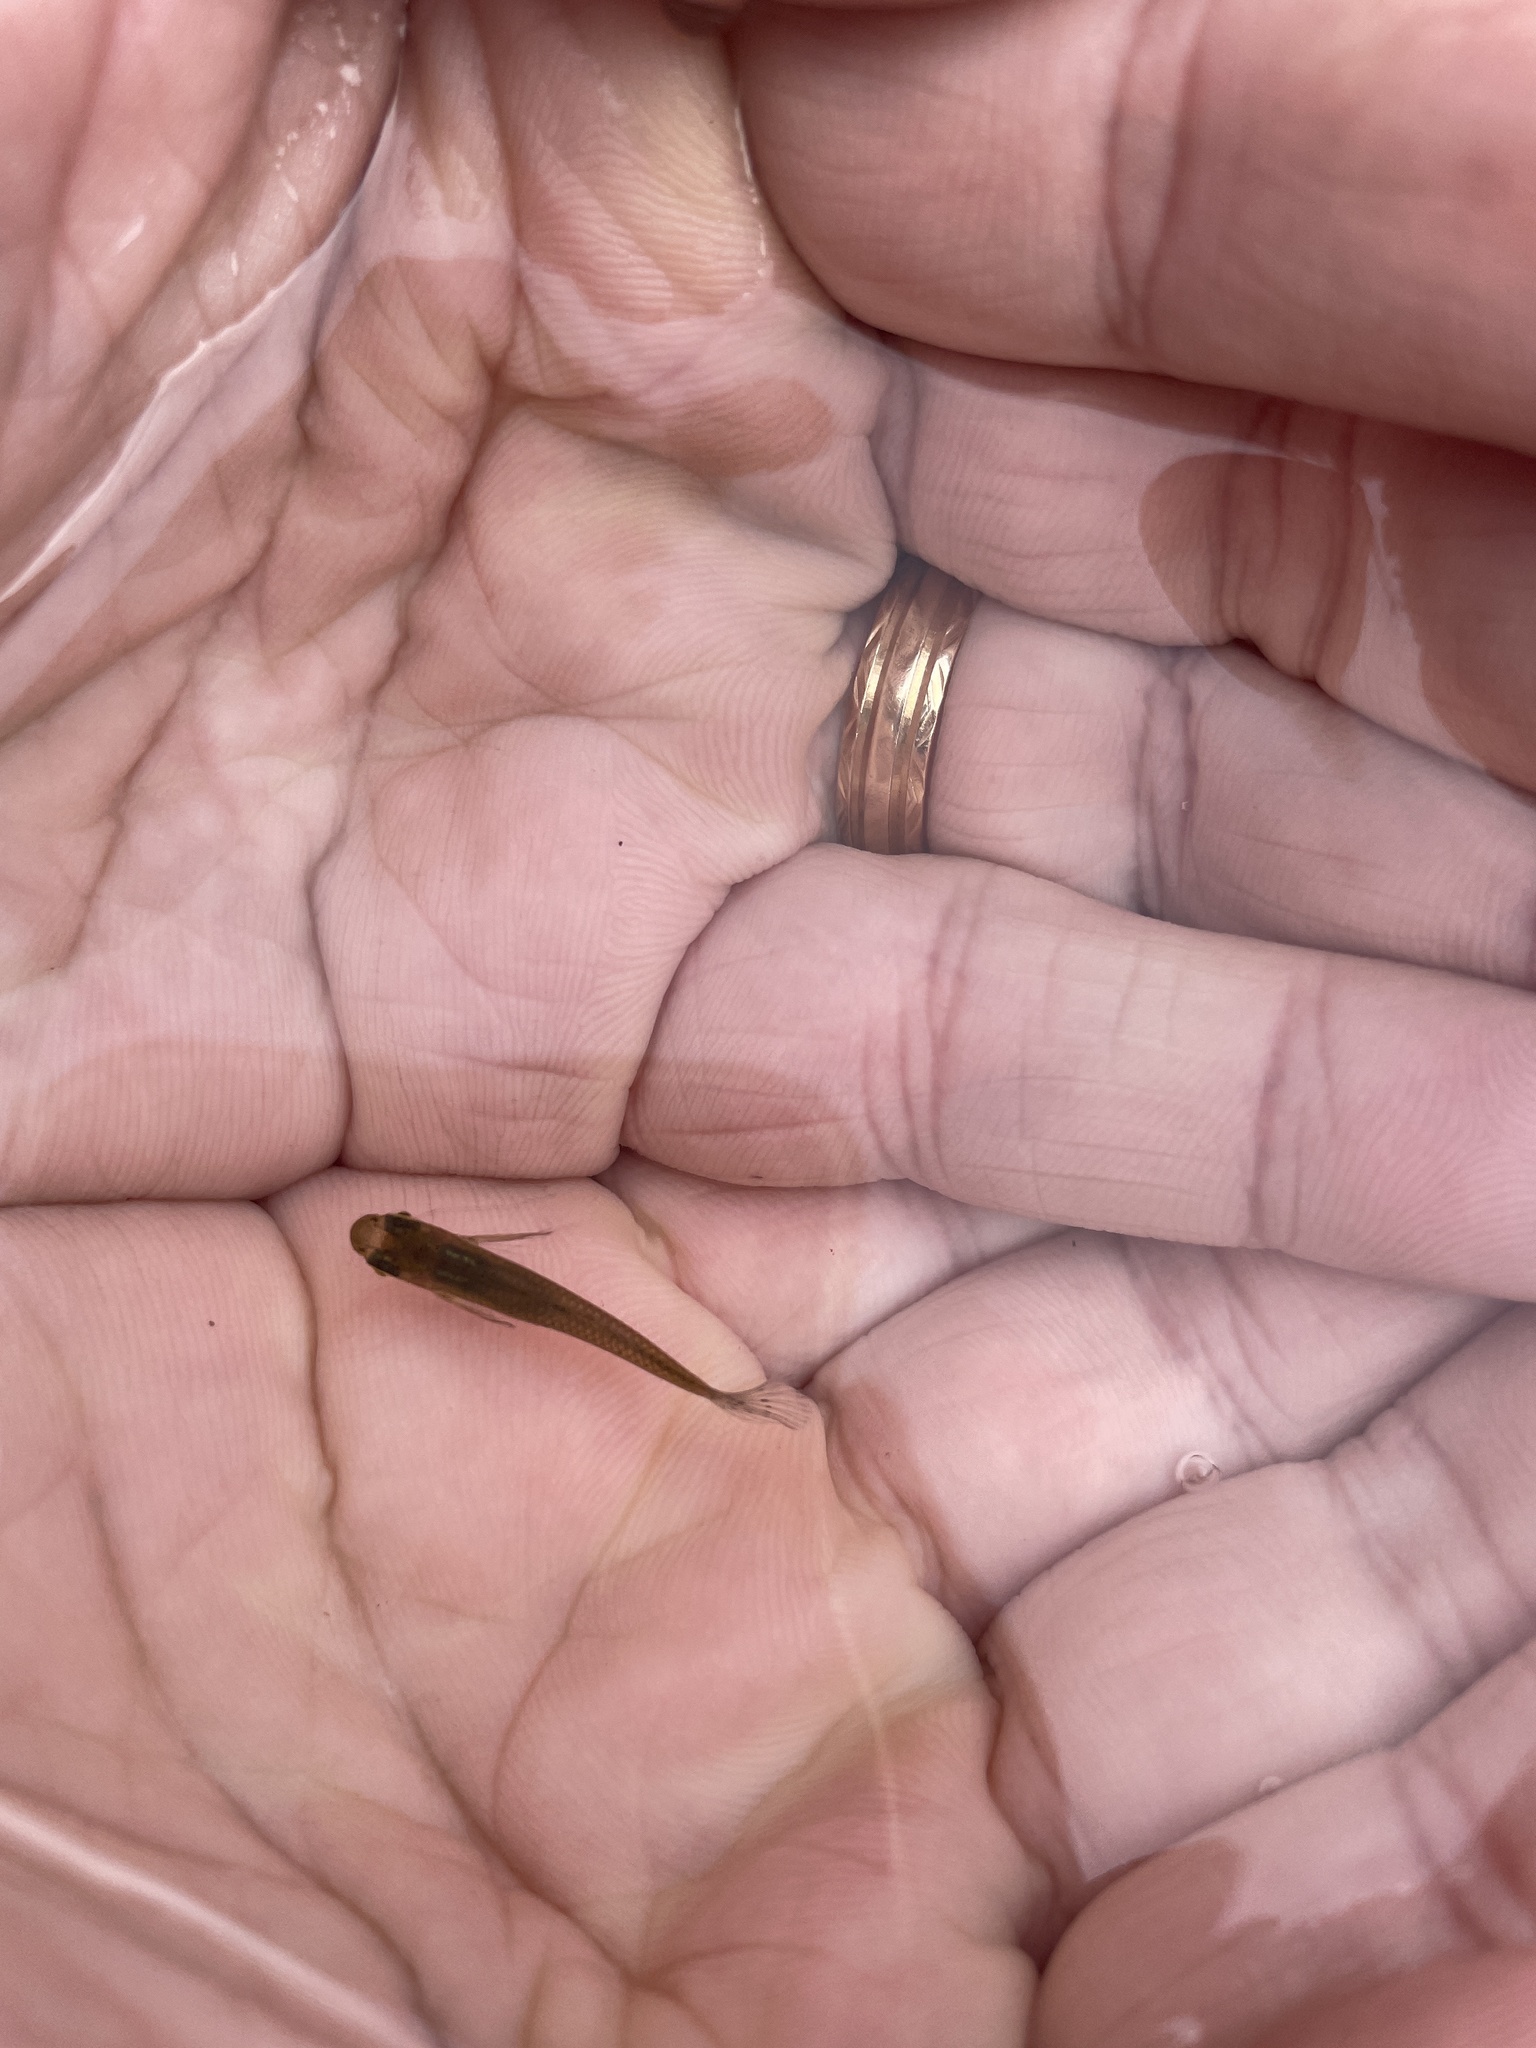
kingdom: Animalia
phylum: Chordata
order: Cyprinodontiformes
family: Poeciliidae
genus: Gambusia
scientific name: Gambusia holbrooki
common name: Eastern mosquitofish
